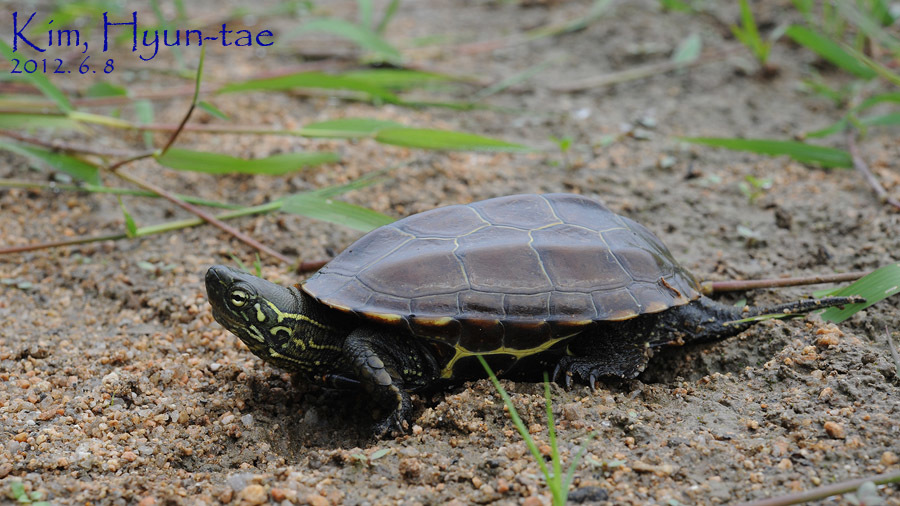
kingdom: Animalia
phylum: Chordata
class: Testudines
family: Geoemydidae
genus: Mauremys
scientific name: Mauremys reevesii
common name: Chinese pond turtle
